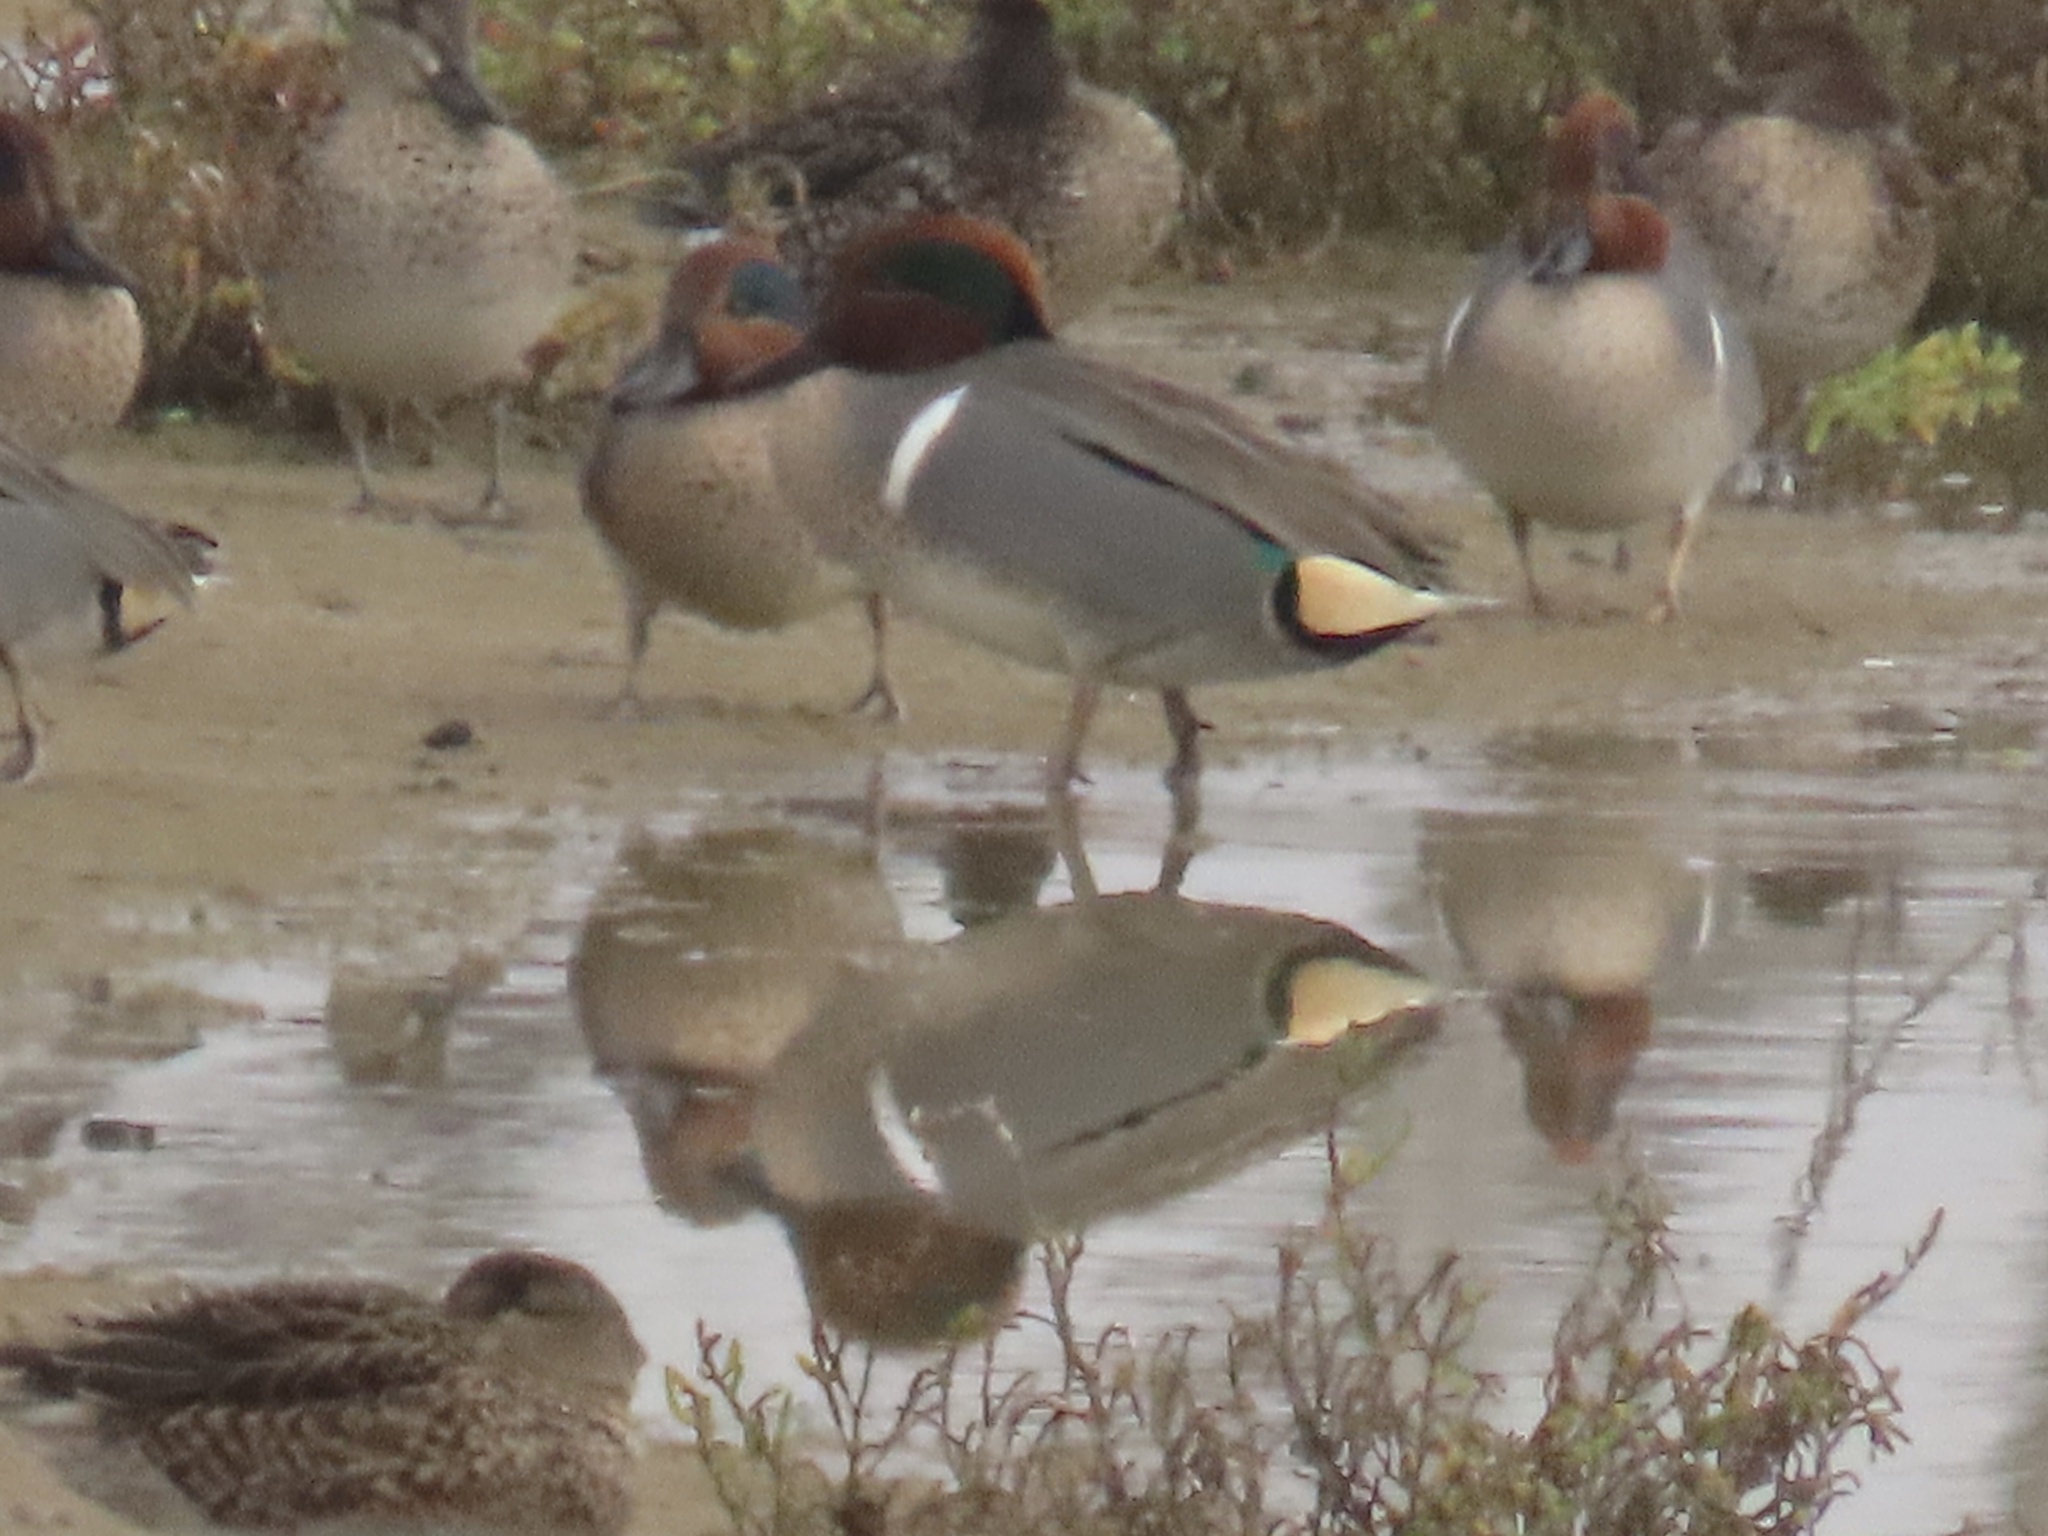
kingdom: Animalia
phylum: Chordata
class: Aves
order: Anseriformes
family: Anatidae
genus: Anas
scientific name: Anas crecca
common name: Eurasian teal
